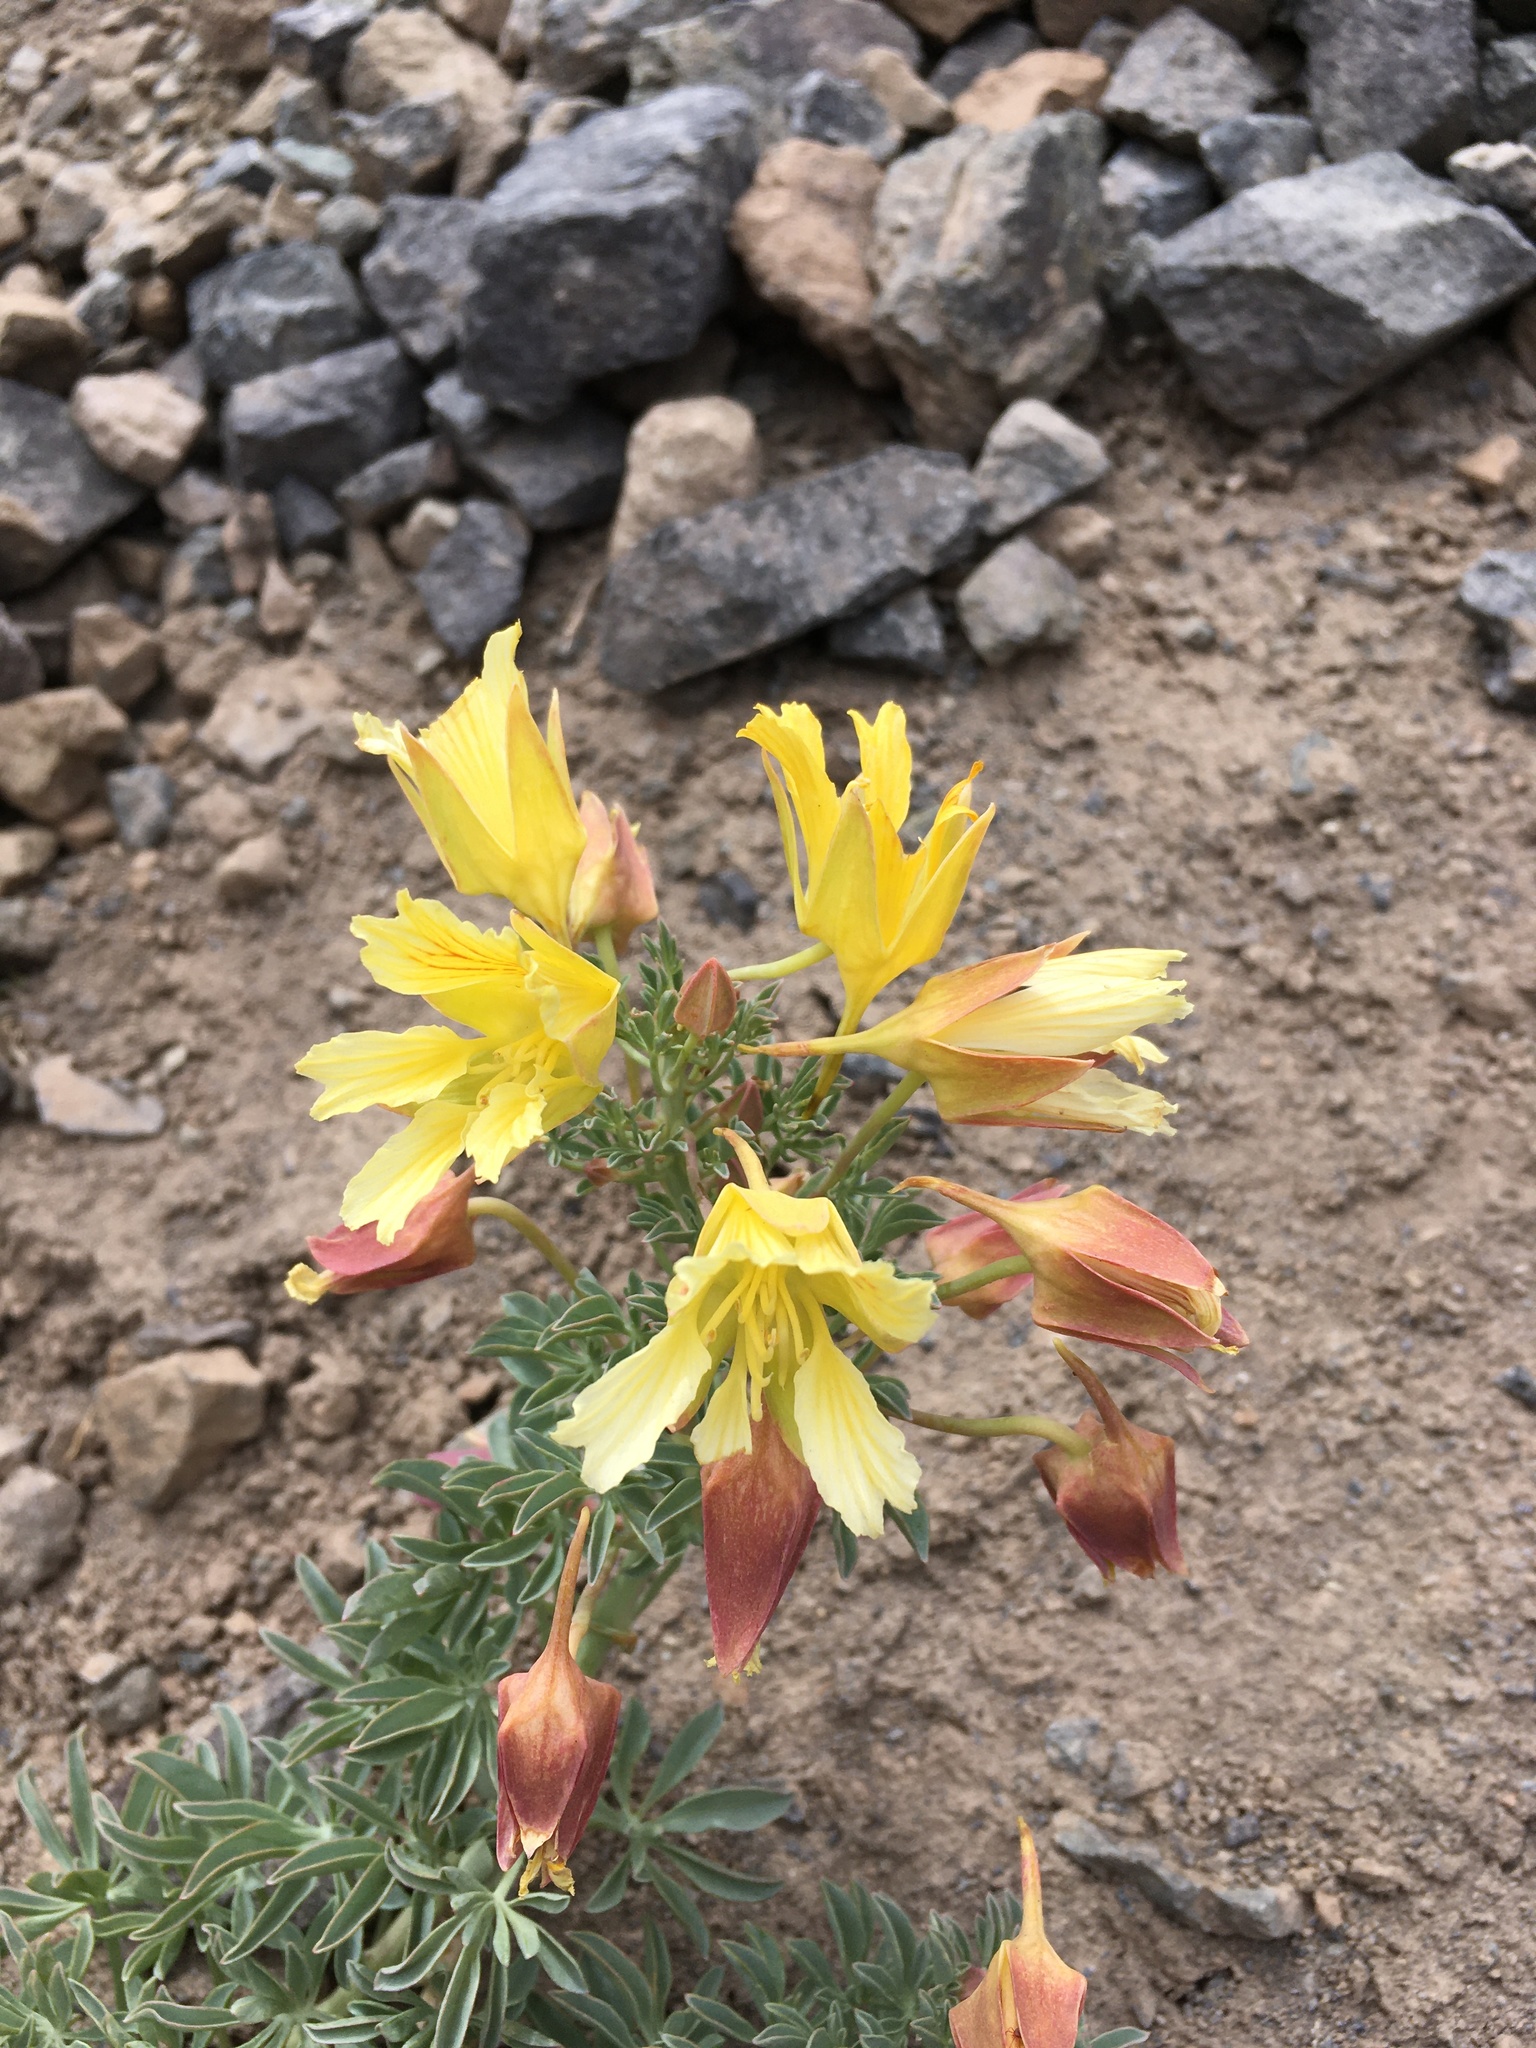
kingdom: Plantae
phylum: Tracheophyta
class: Magnoliopsida
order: Brassicales
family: Tropaeolaceae
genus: Tropaeolum
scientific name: Tropaeolum polyphyllum
